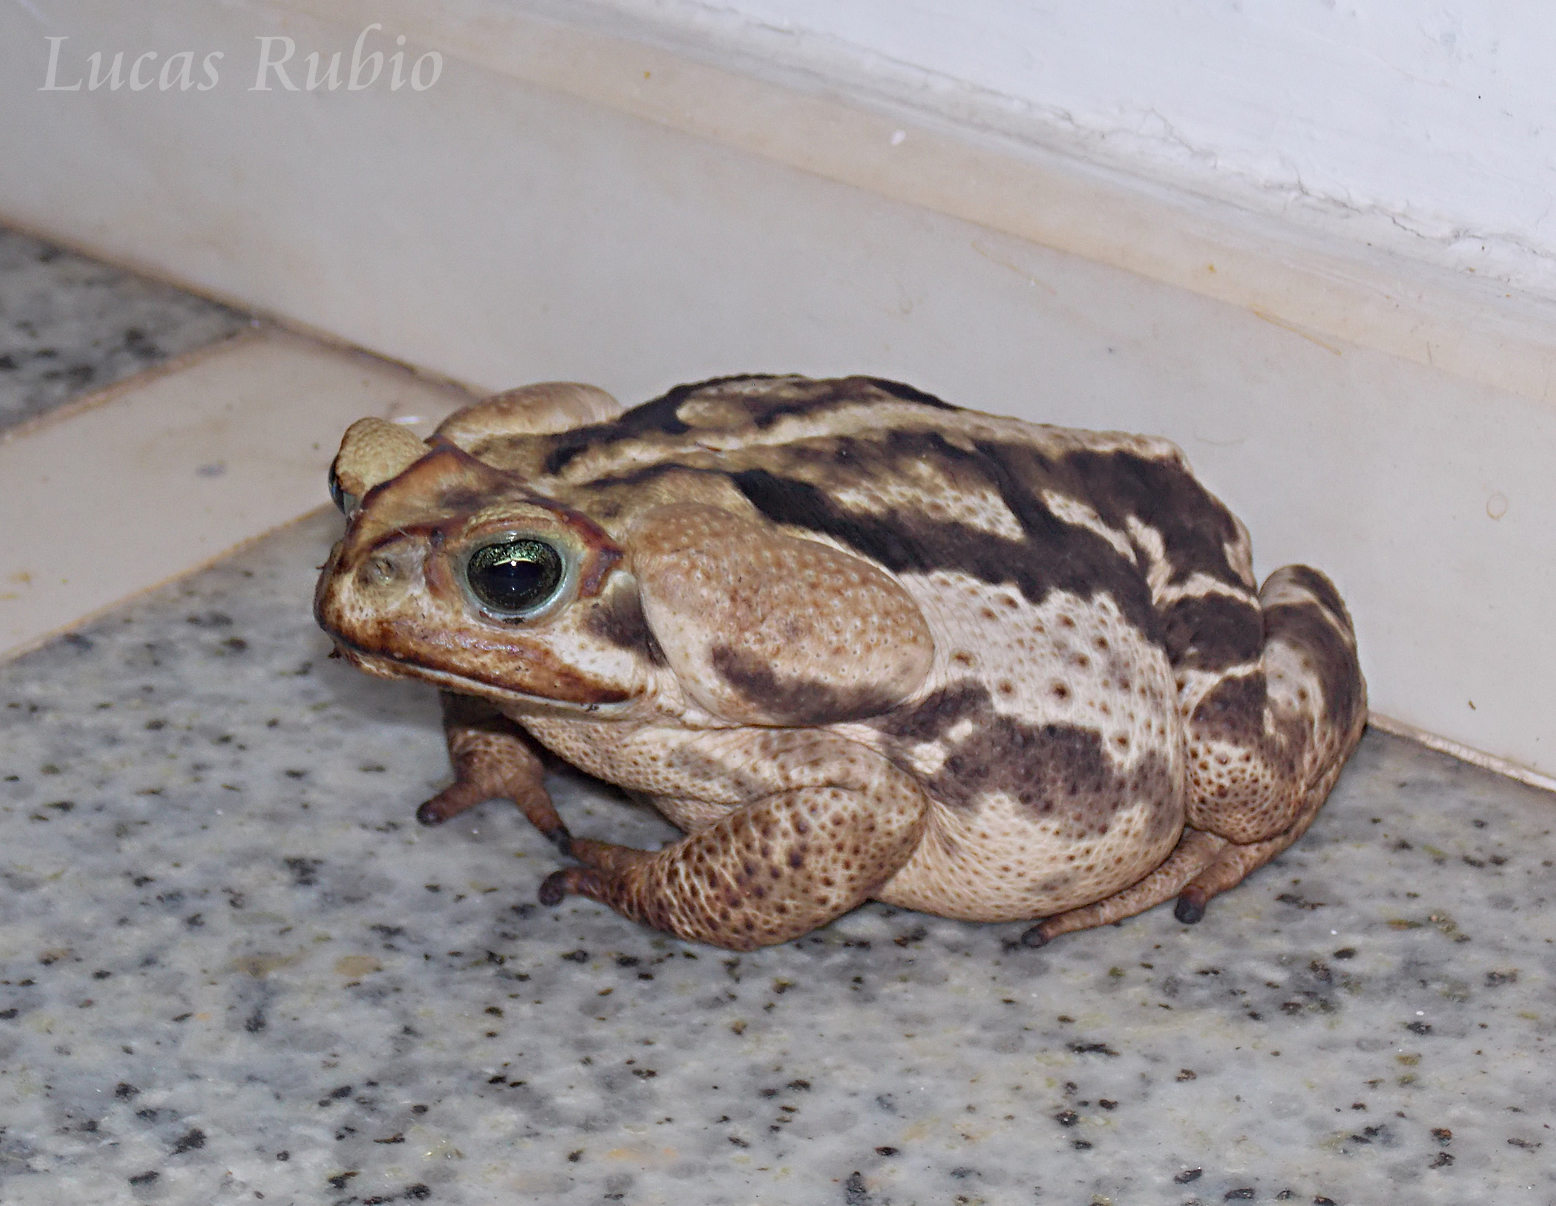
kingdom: Animalia
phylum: Chordata
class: Amphibia
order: Anura
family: Bufonidae
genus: Rhinella
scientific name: Rhinella icterica
